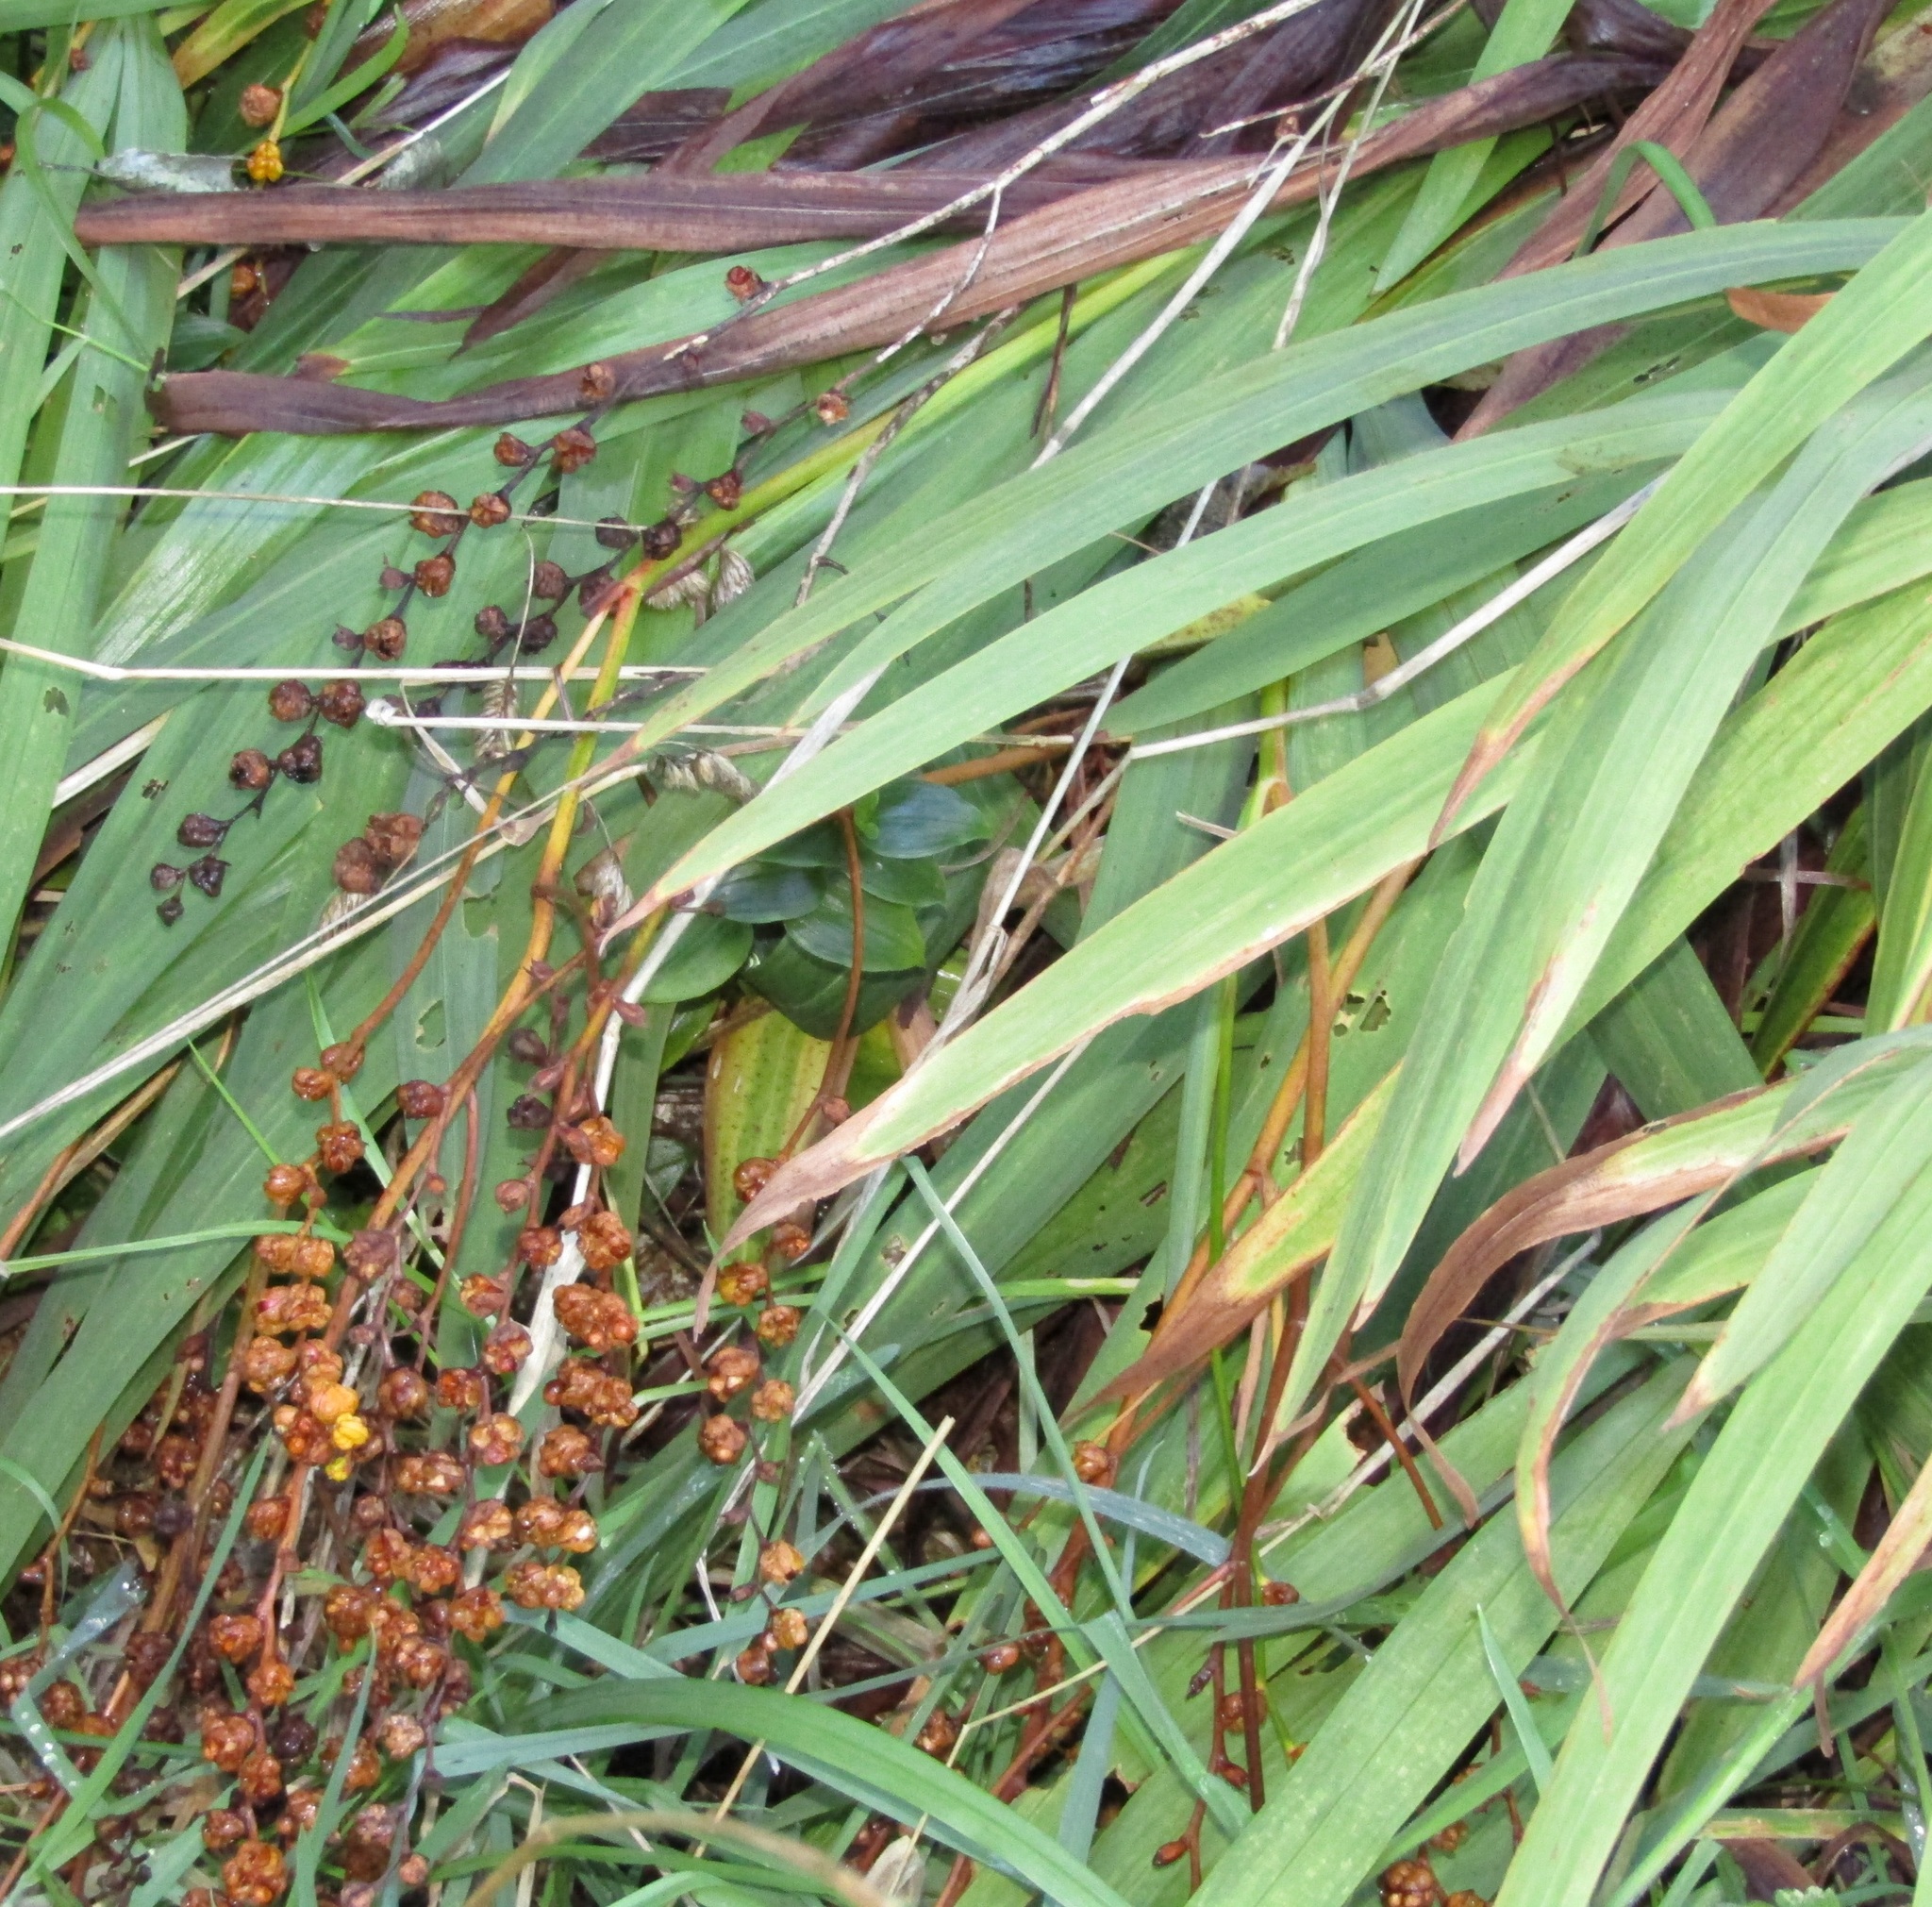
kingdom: Plantae
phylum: Tracheophyta
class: Liliopsida
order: Asparagales
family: Iridaceae
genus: Crocosmia
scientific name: Crocosmia crocosmiiflora
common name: Montbretia
